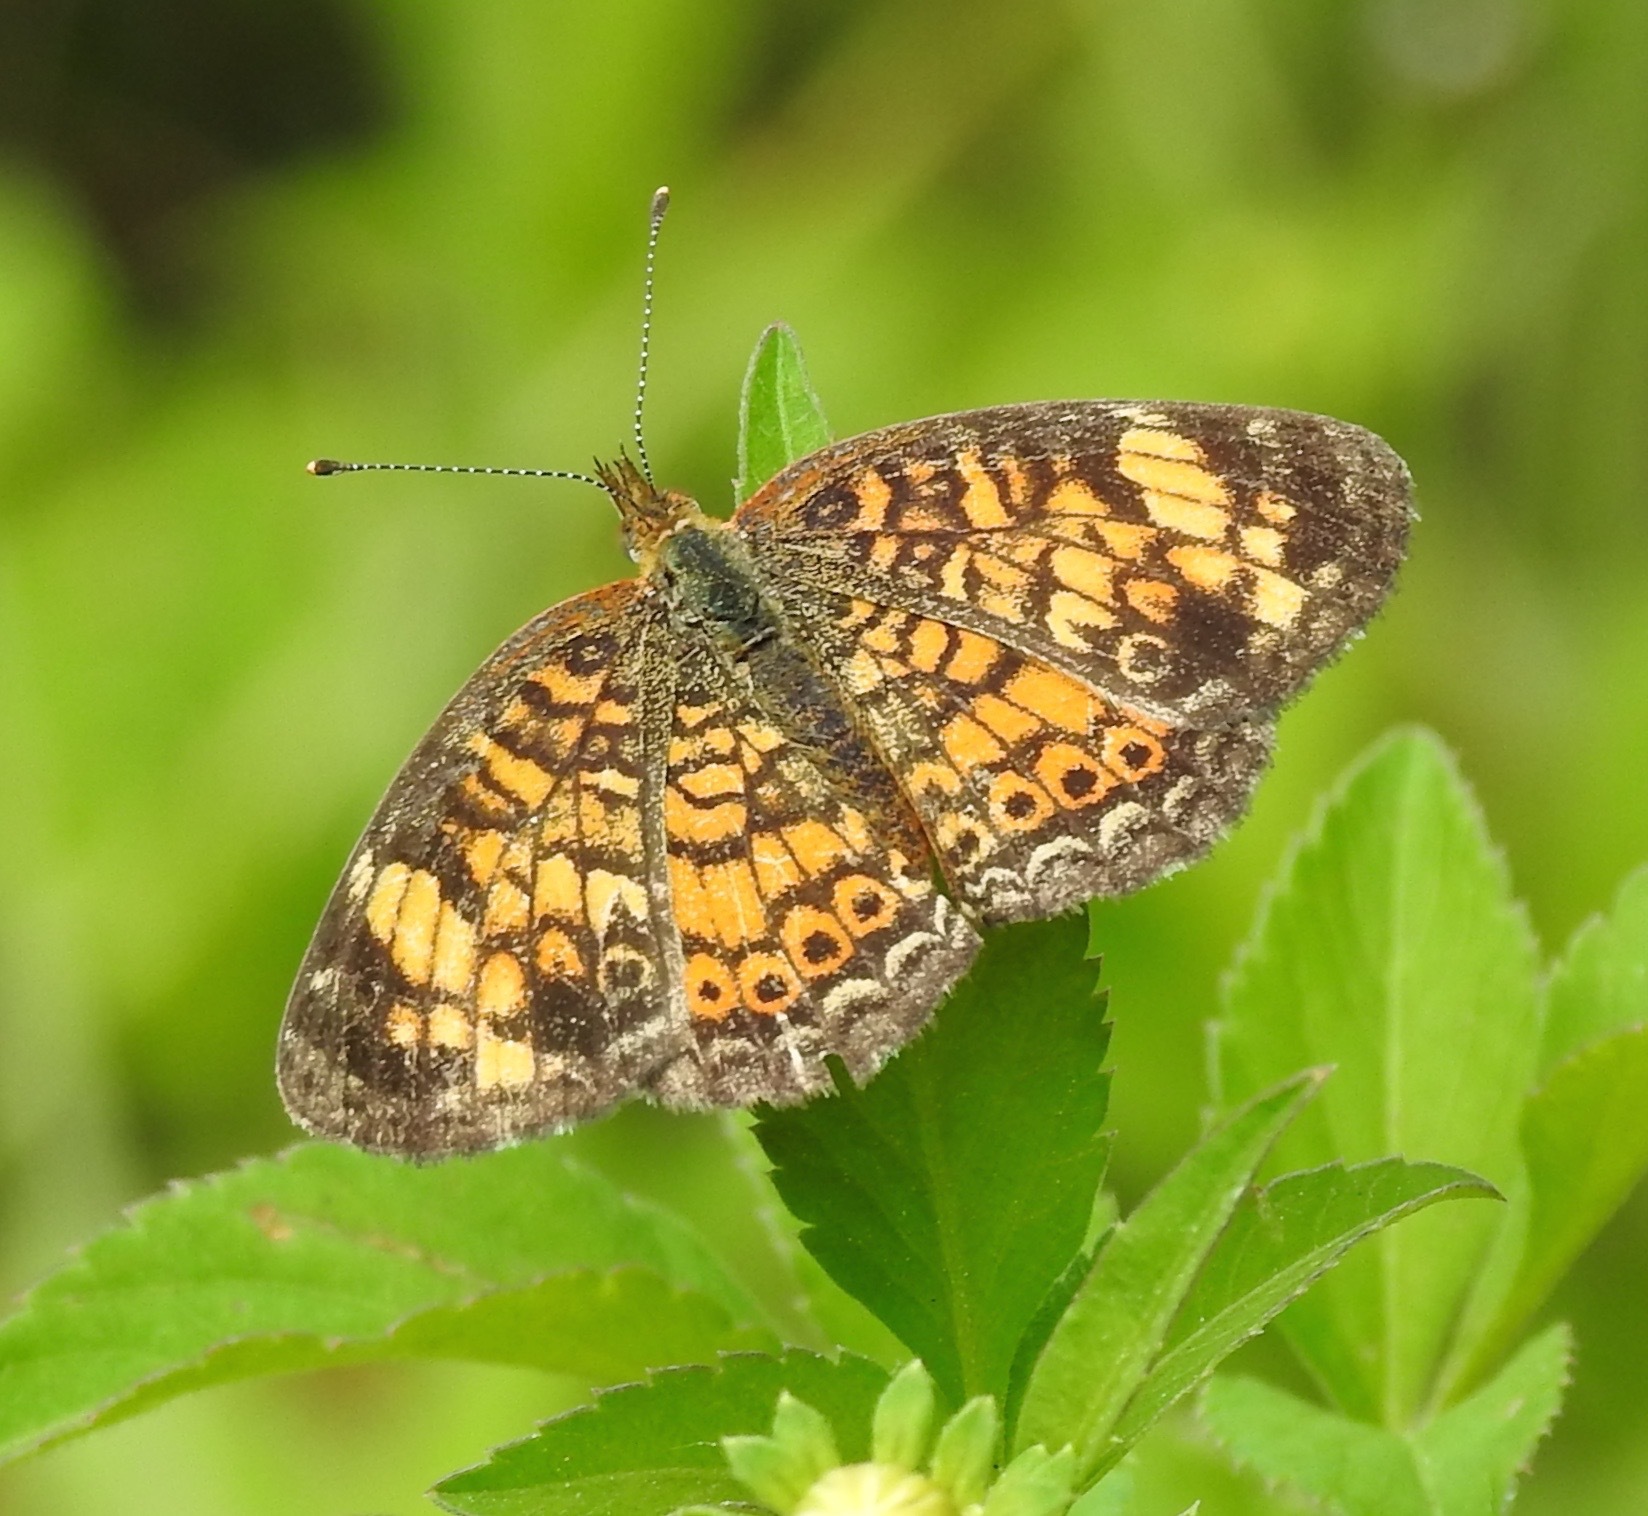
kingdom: Animalia
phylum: Arthropoda
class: Insecta
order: Lepidoptera
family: Nymphalidae
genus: Phyciodes
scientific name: Phyciodes tharos
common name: Pearl crescent
